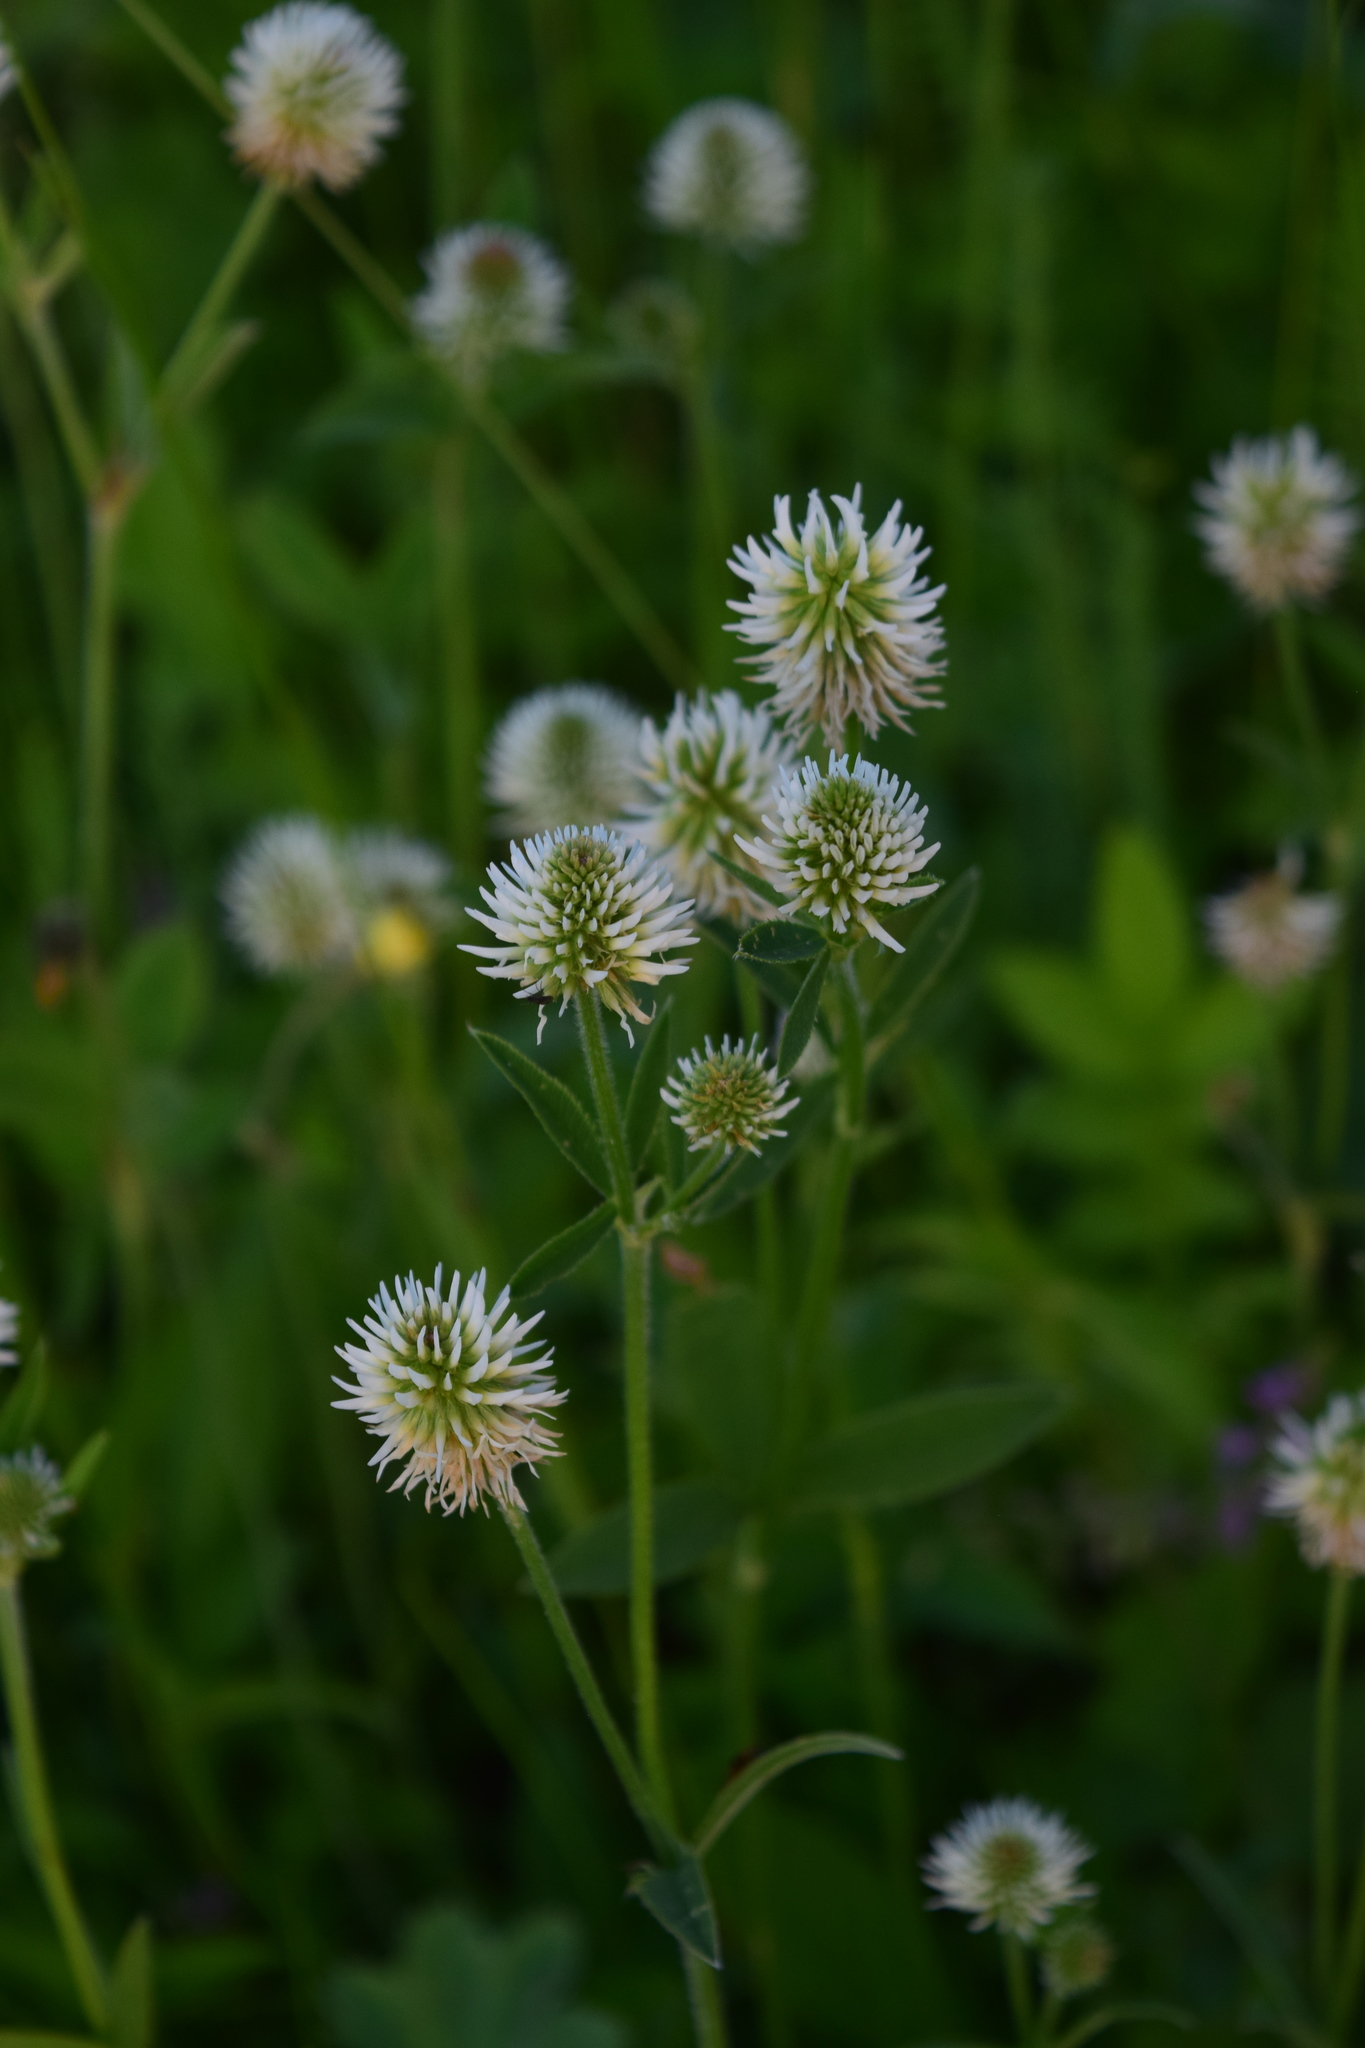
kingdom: Plantae
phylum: Tracheophyta
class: Magnoliopsida
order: Fabales
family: Fabaceae
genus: Trifolium
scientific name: Trifolium montanum
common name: Mountain clover
